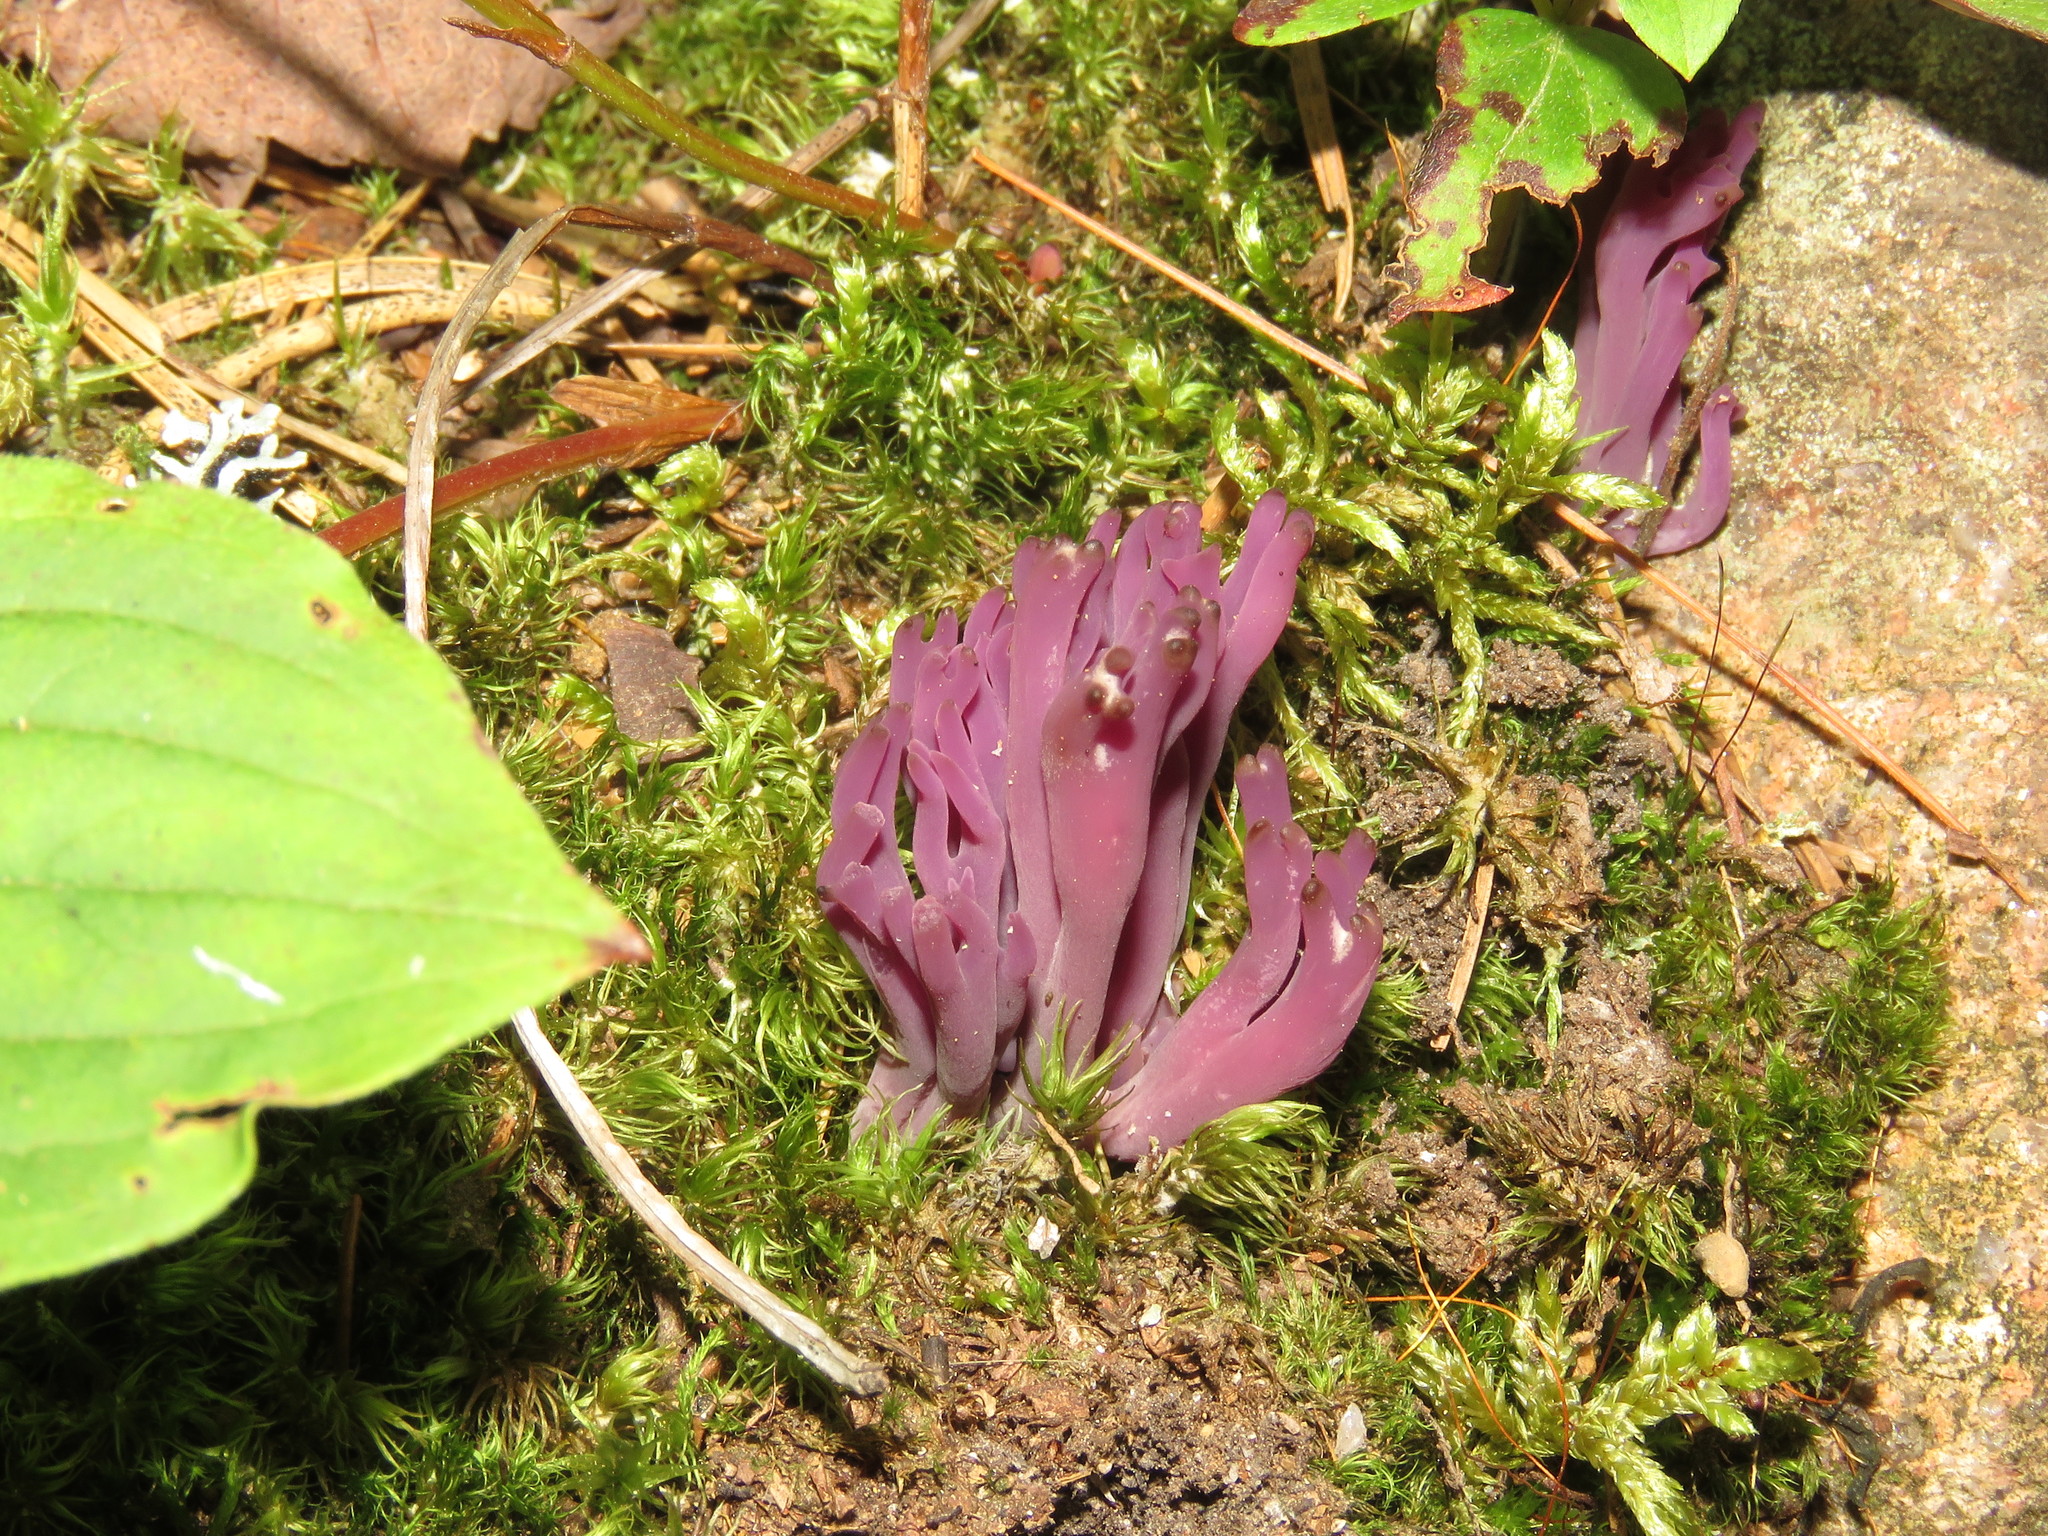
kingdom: Fungi
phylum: Basidiomycota
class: Agaricomycetes
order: Agaricales
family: Clavariaceae
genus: Clavaria
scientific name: Clavaria zollingeri
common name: Violet coral
